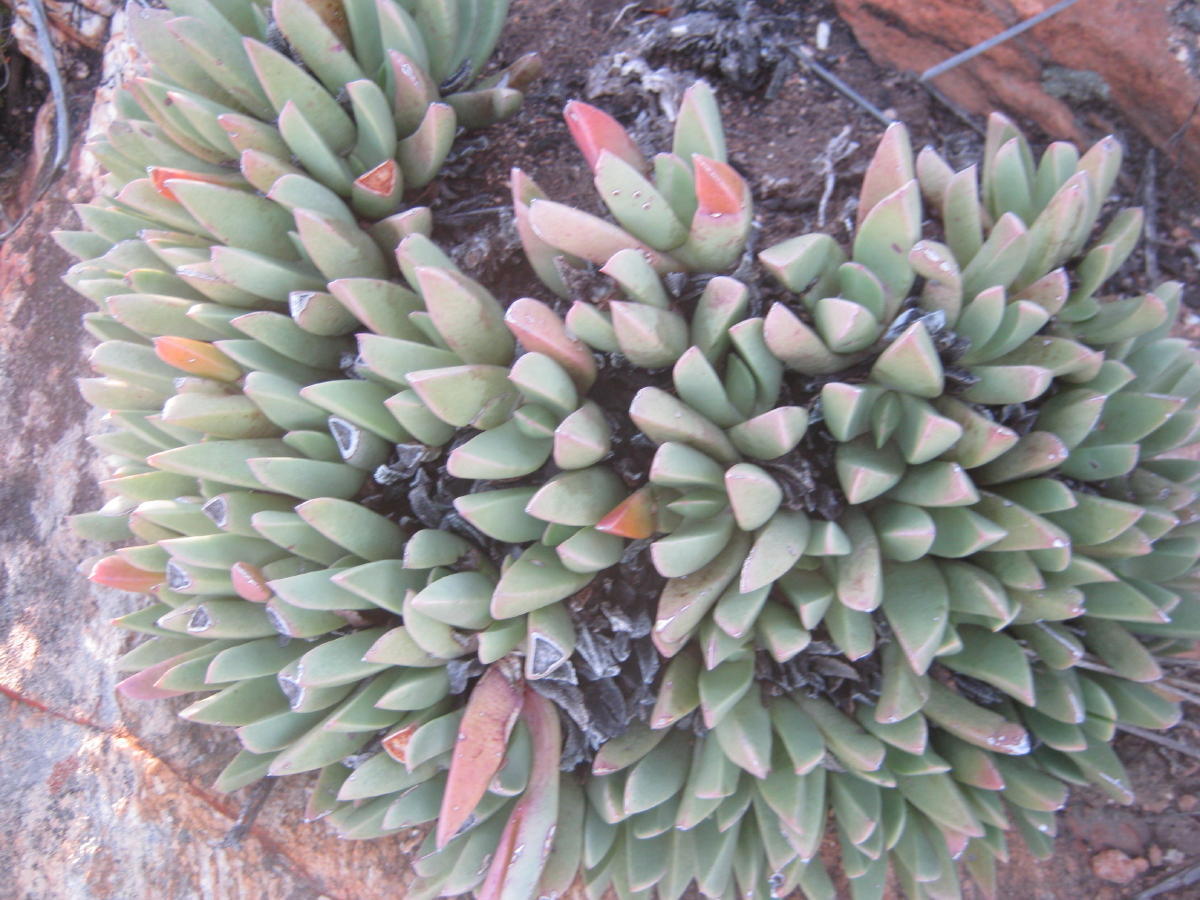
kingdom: Plantae
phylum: Tracheophyta
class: Magnoliopsida
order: Caryophyllales
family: Aizoaceae
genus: Machairophyllum
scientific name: Machairophyllum albidum
